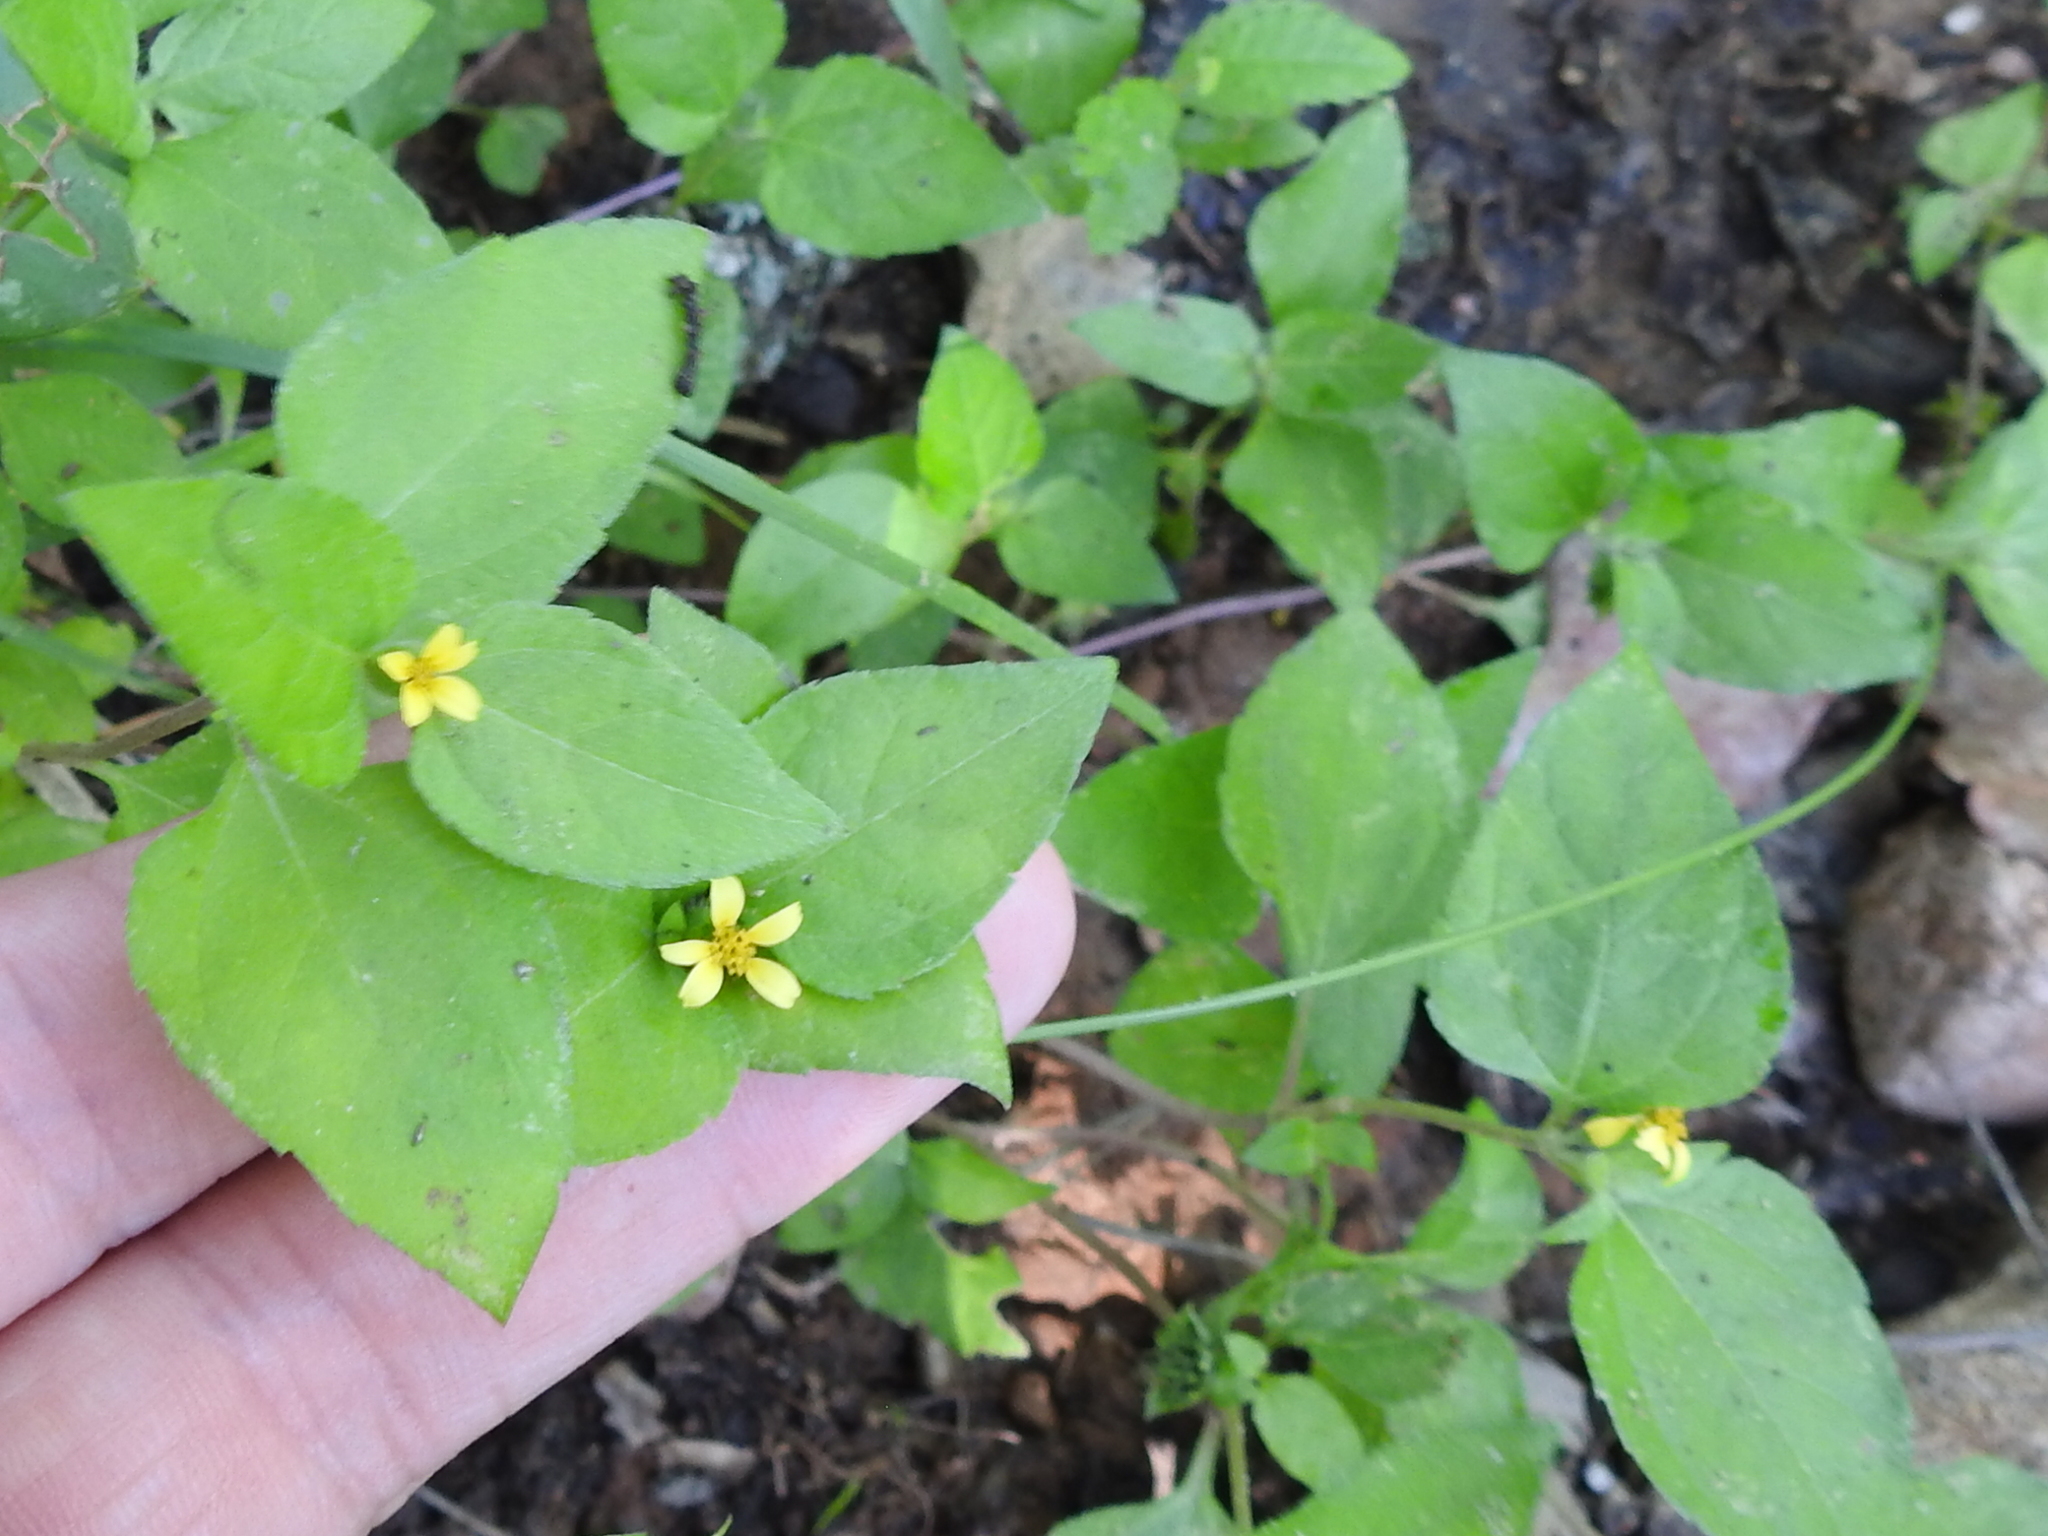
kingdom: Plantae
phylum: Tracheophyta
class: Magnoliopsida
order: Asterales
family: Asteraceae
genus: Calyptocarpus
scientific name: Calyptocarpus vialis
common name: Straggler daisy
